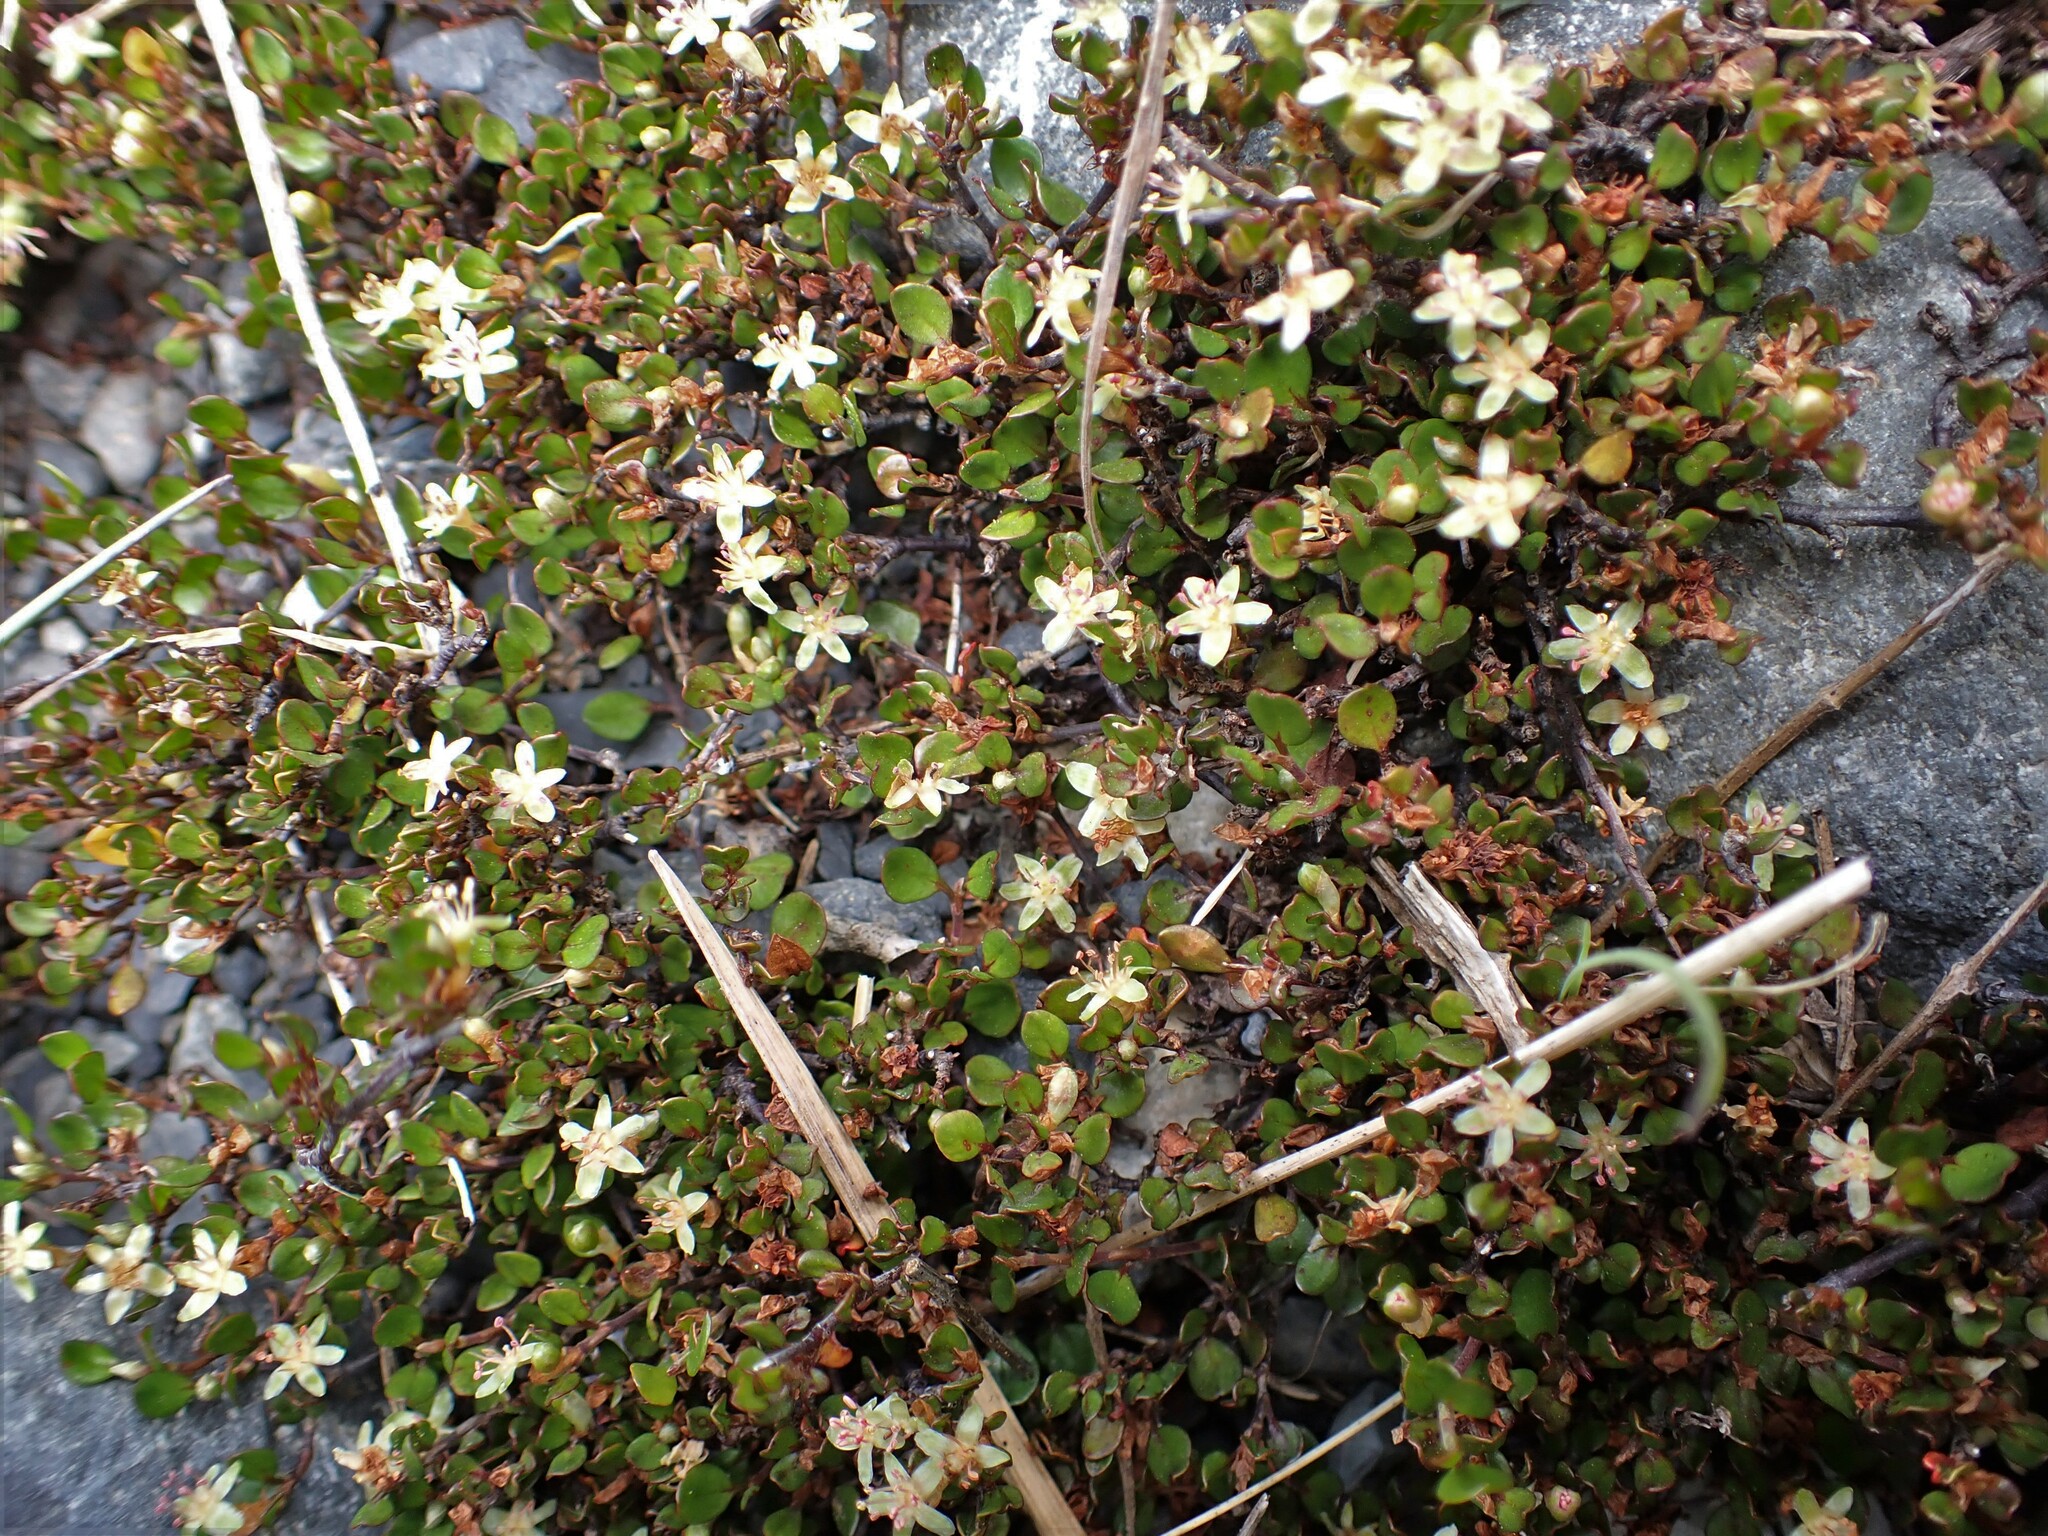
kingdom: Plantae
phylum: Tracheophyta
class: Magnoliopsida
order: Caryophyllales
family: Polygonaceae
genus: Muehlenbeckia
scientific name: Muehlenbeckia axillaris
